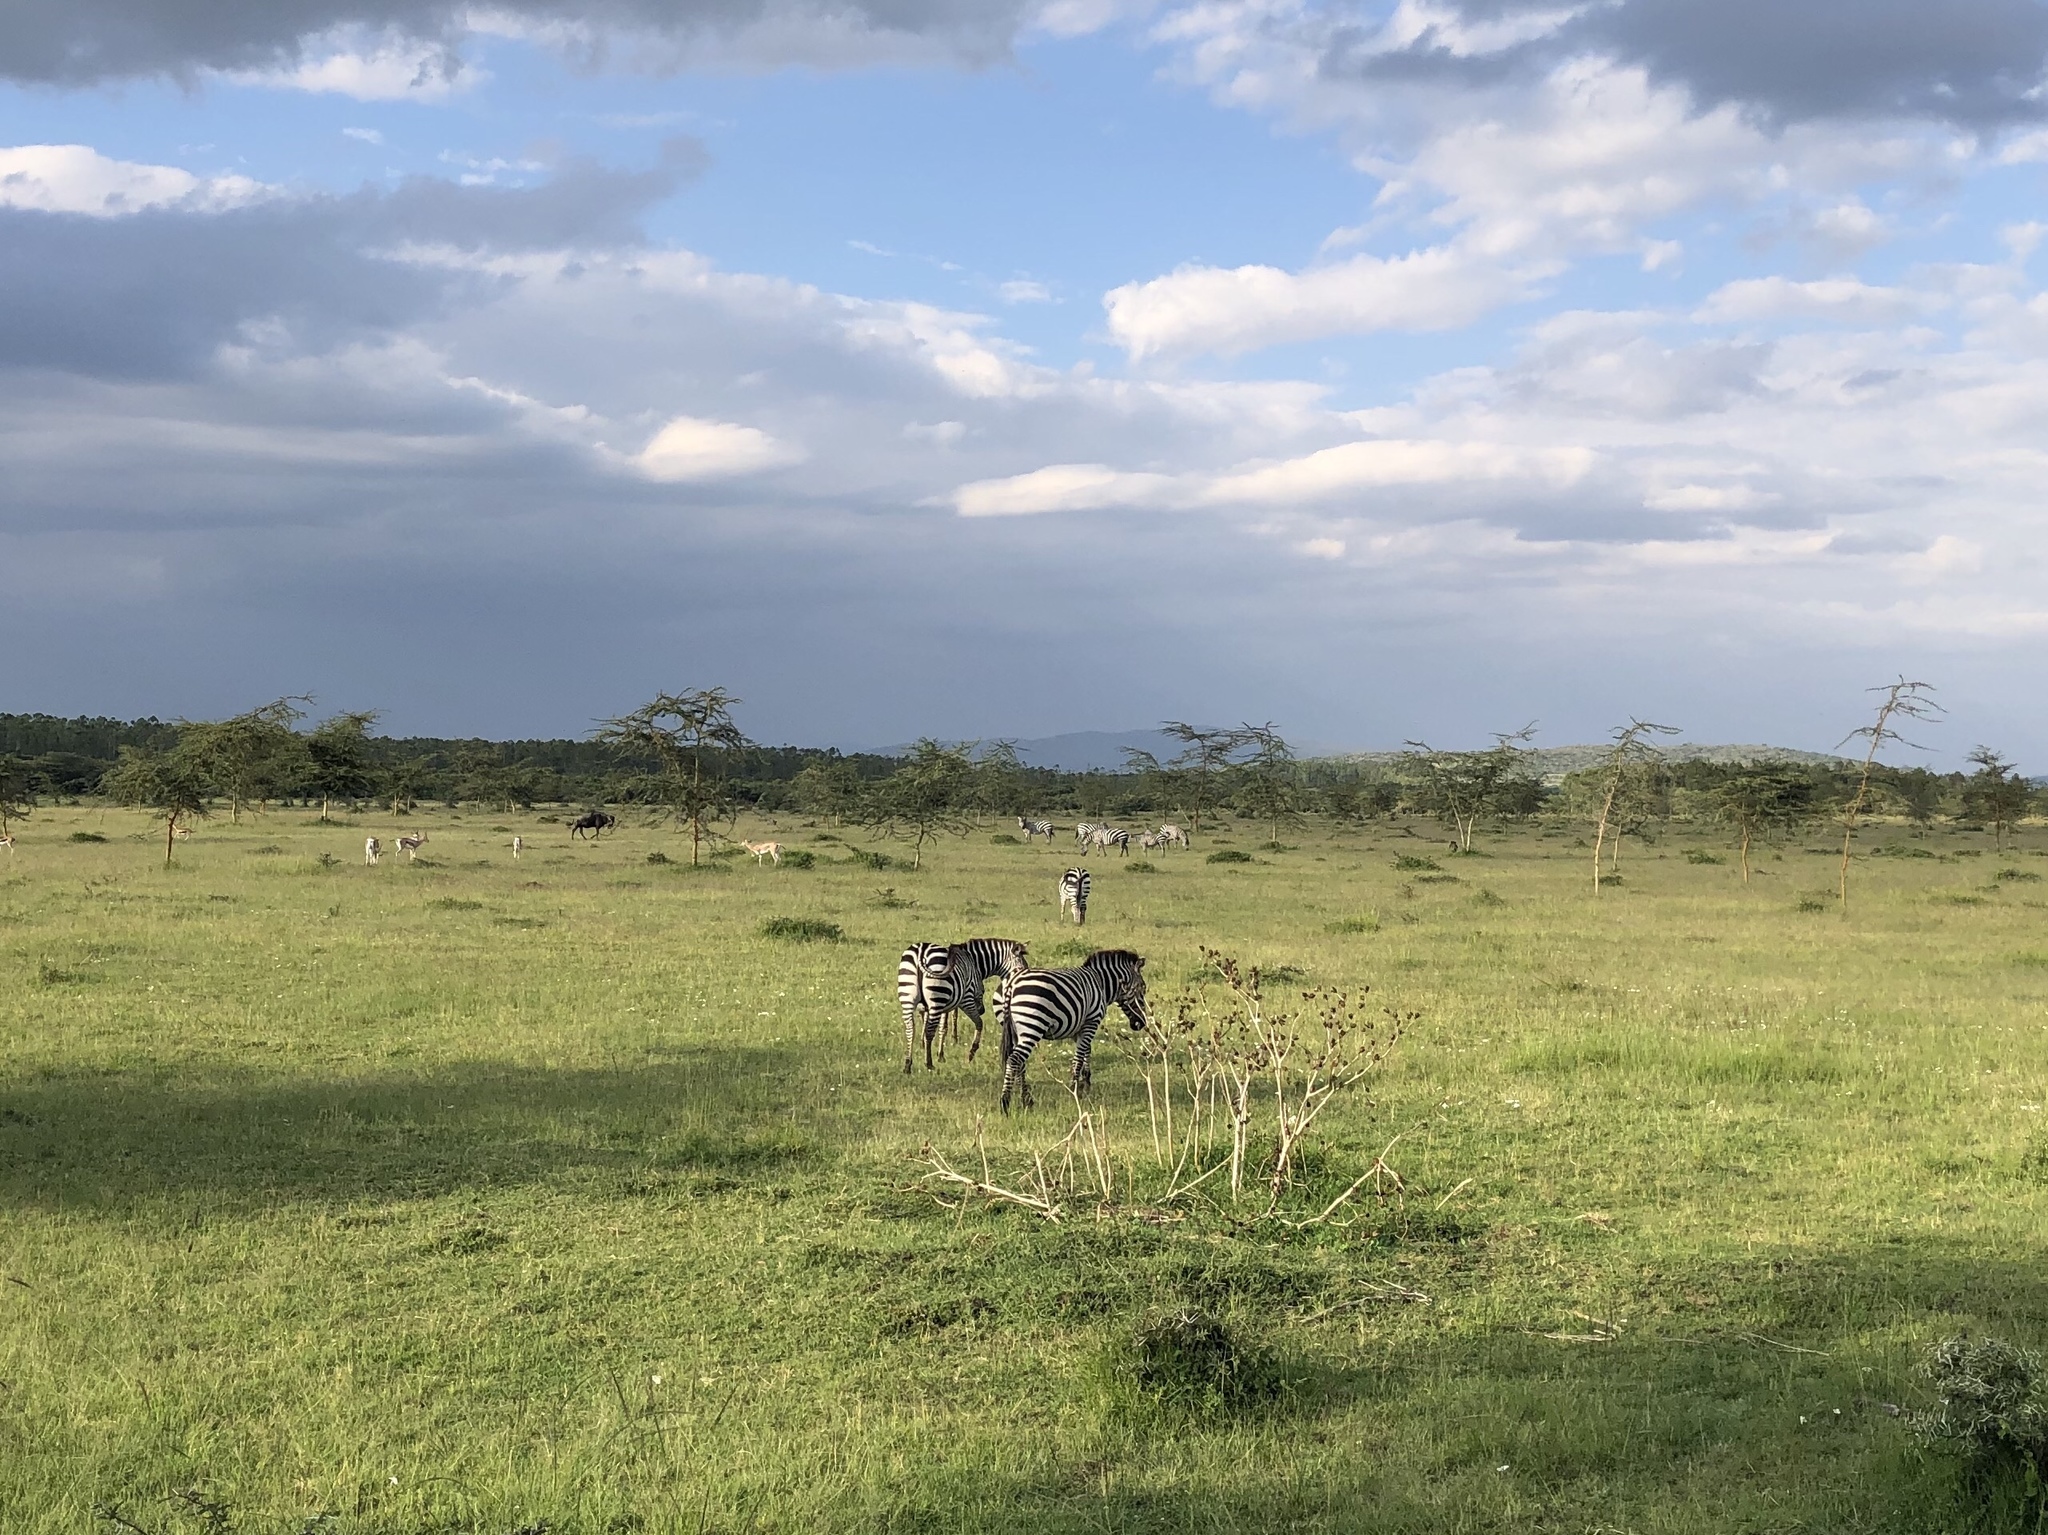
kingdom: Animalia
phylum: Chordata
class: Mammalia
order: Perissodactyla
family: Equidae
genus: Equus
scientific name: Equus quagga
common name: Plains zebra
